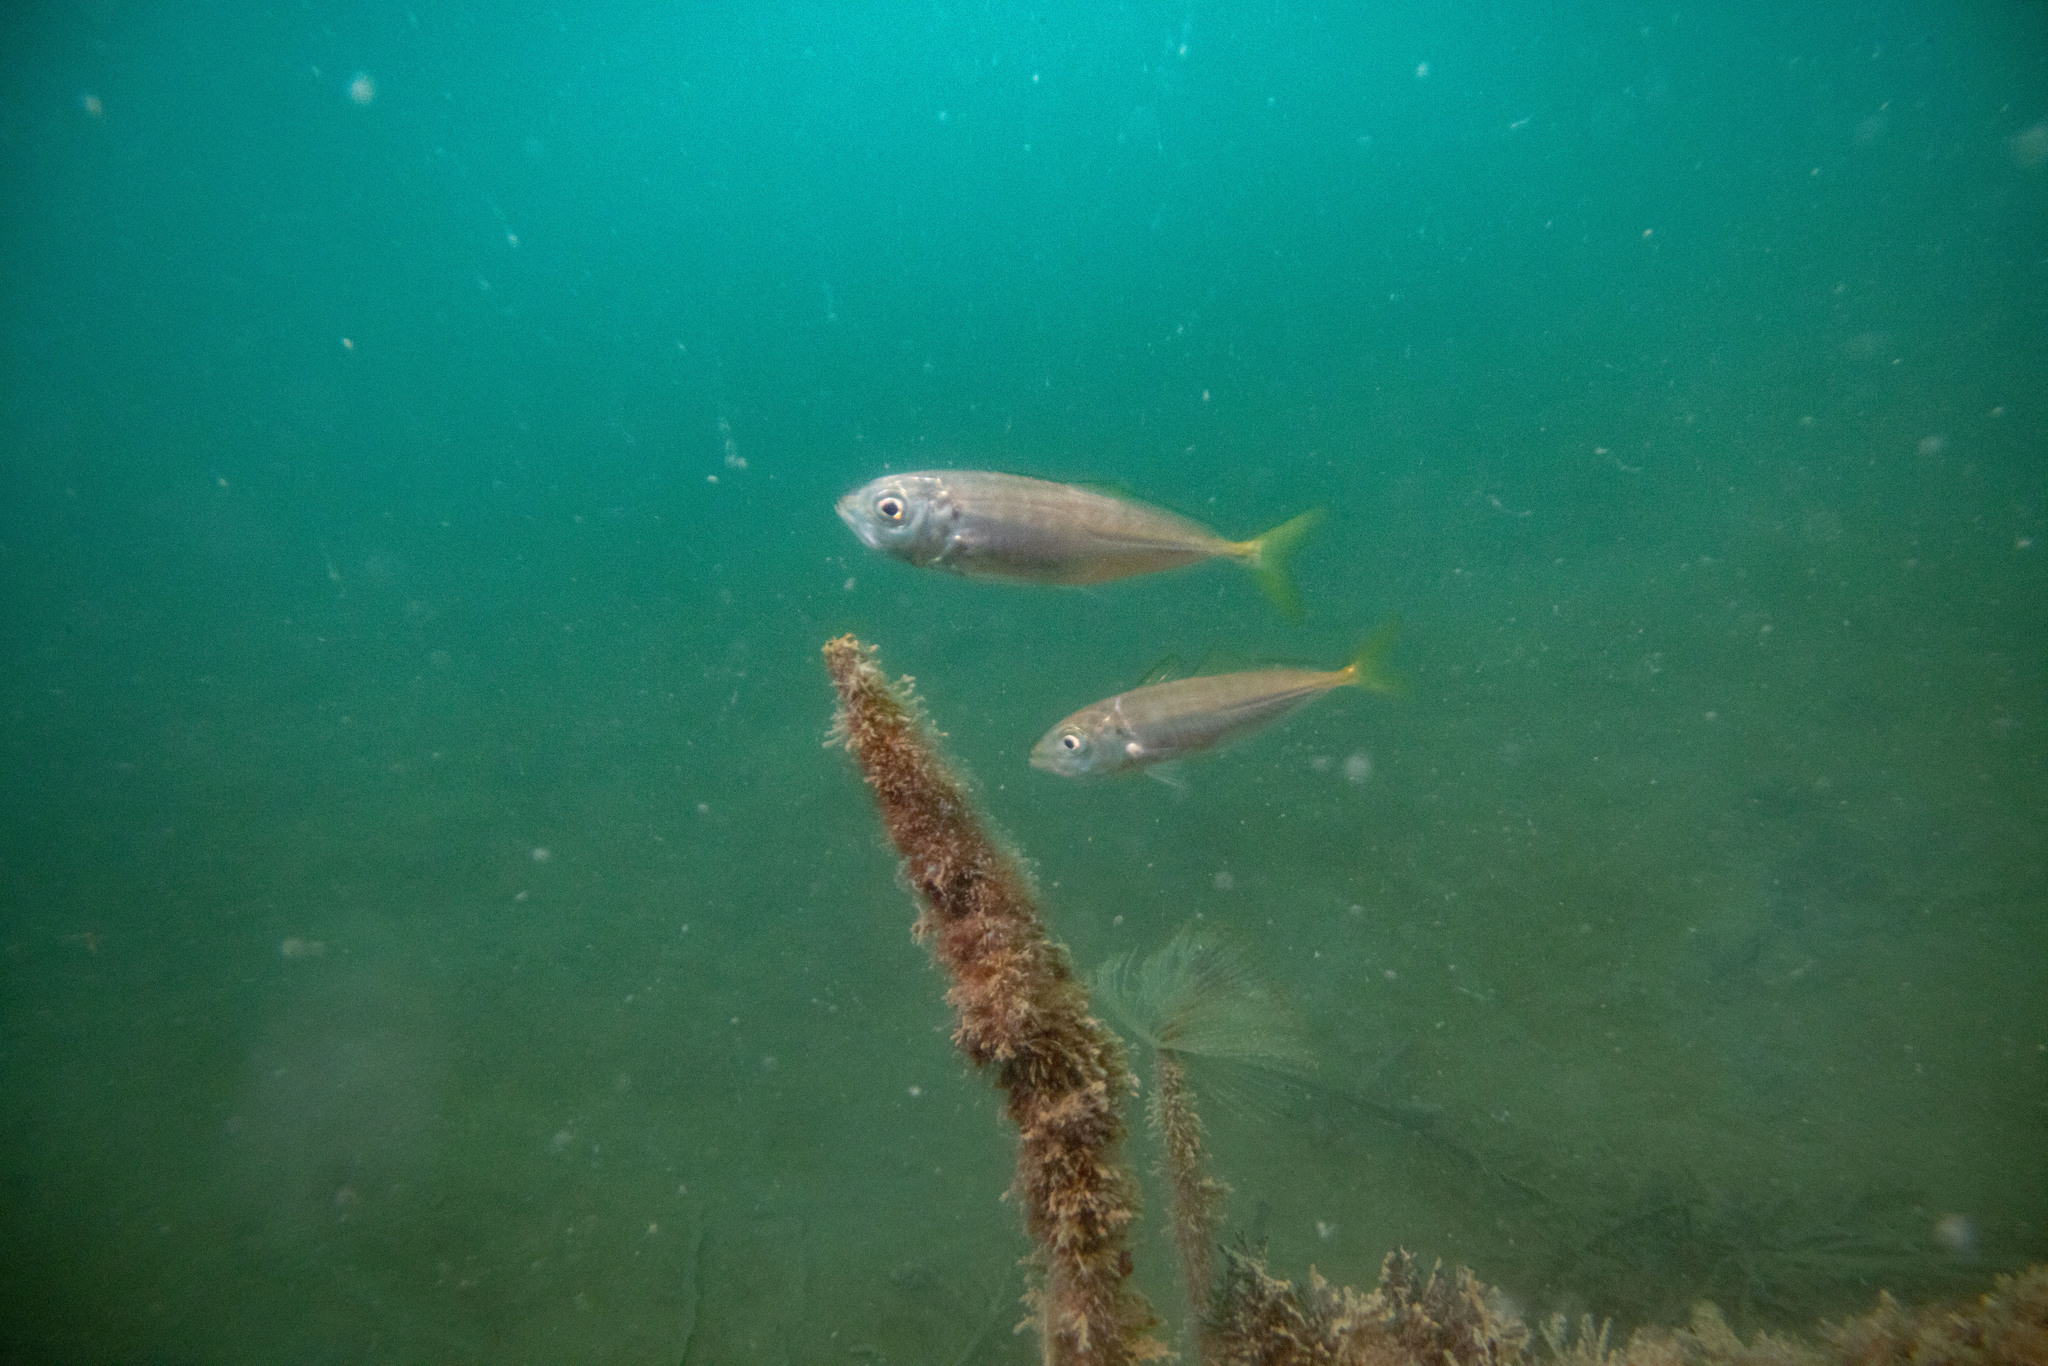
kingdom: Animalia
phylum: Chordata
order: Perciformes
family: Carangidae
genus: Trachurus
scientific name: Trachurus novaezelandiae
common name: Yellowtail horse mackerel
